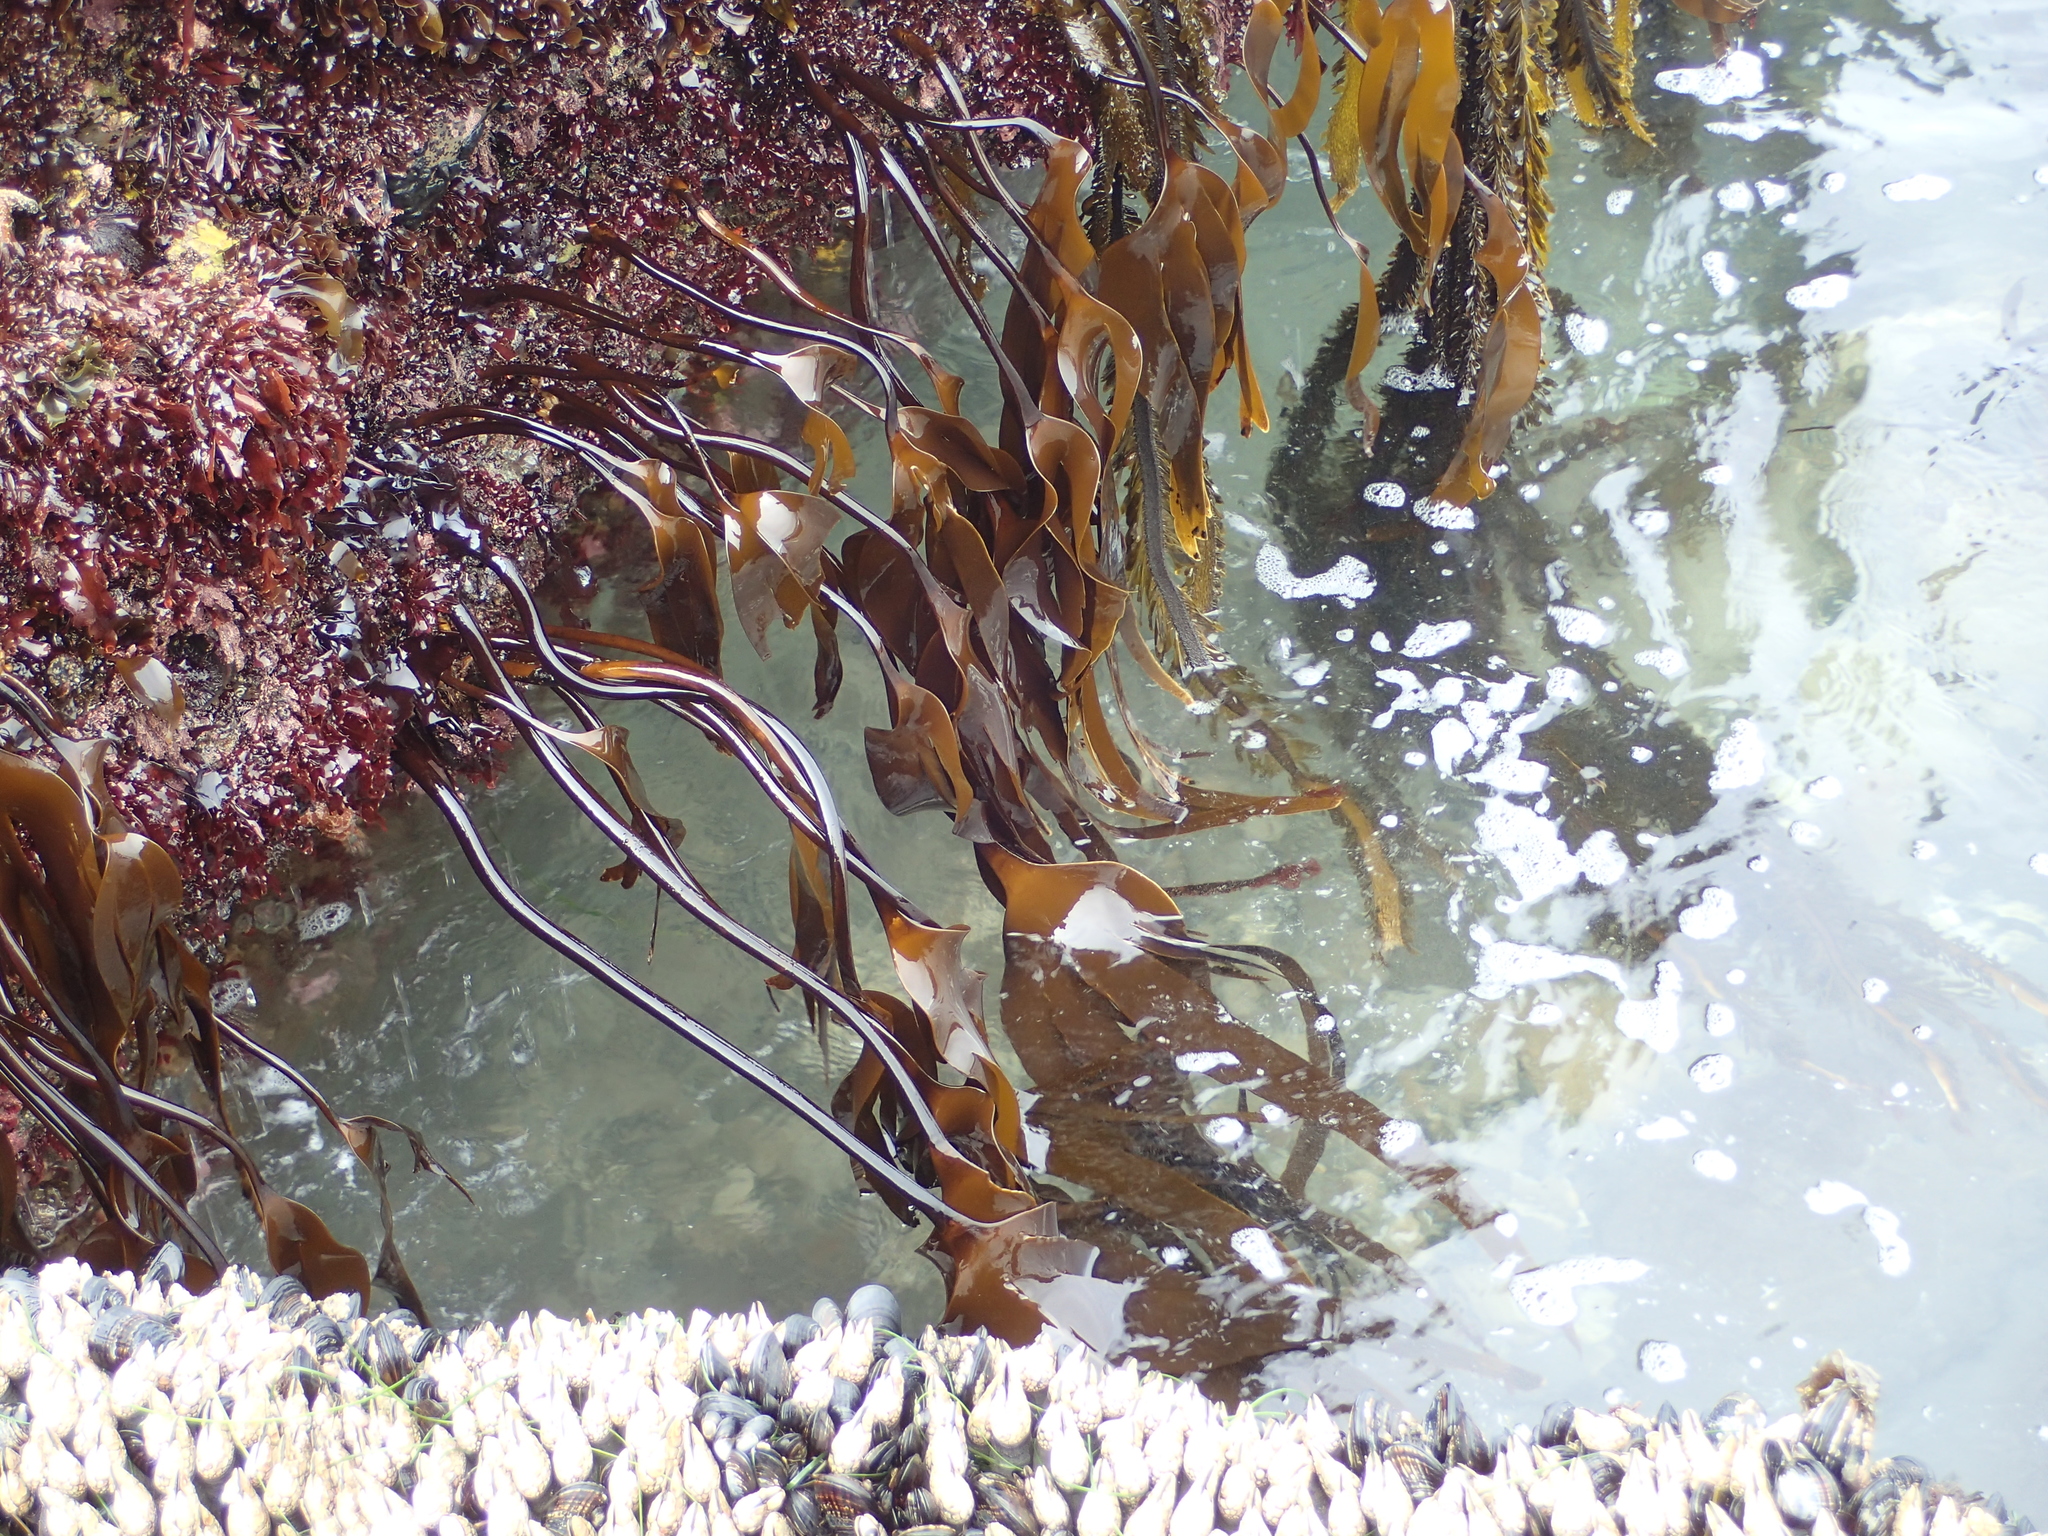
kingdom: Chromista
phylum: Ochrophyta
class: Phaeophyceae
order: Laminariales
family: Laminariaceae
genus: Laminaria
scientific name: Laminaria setchellii
